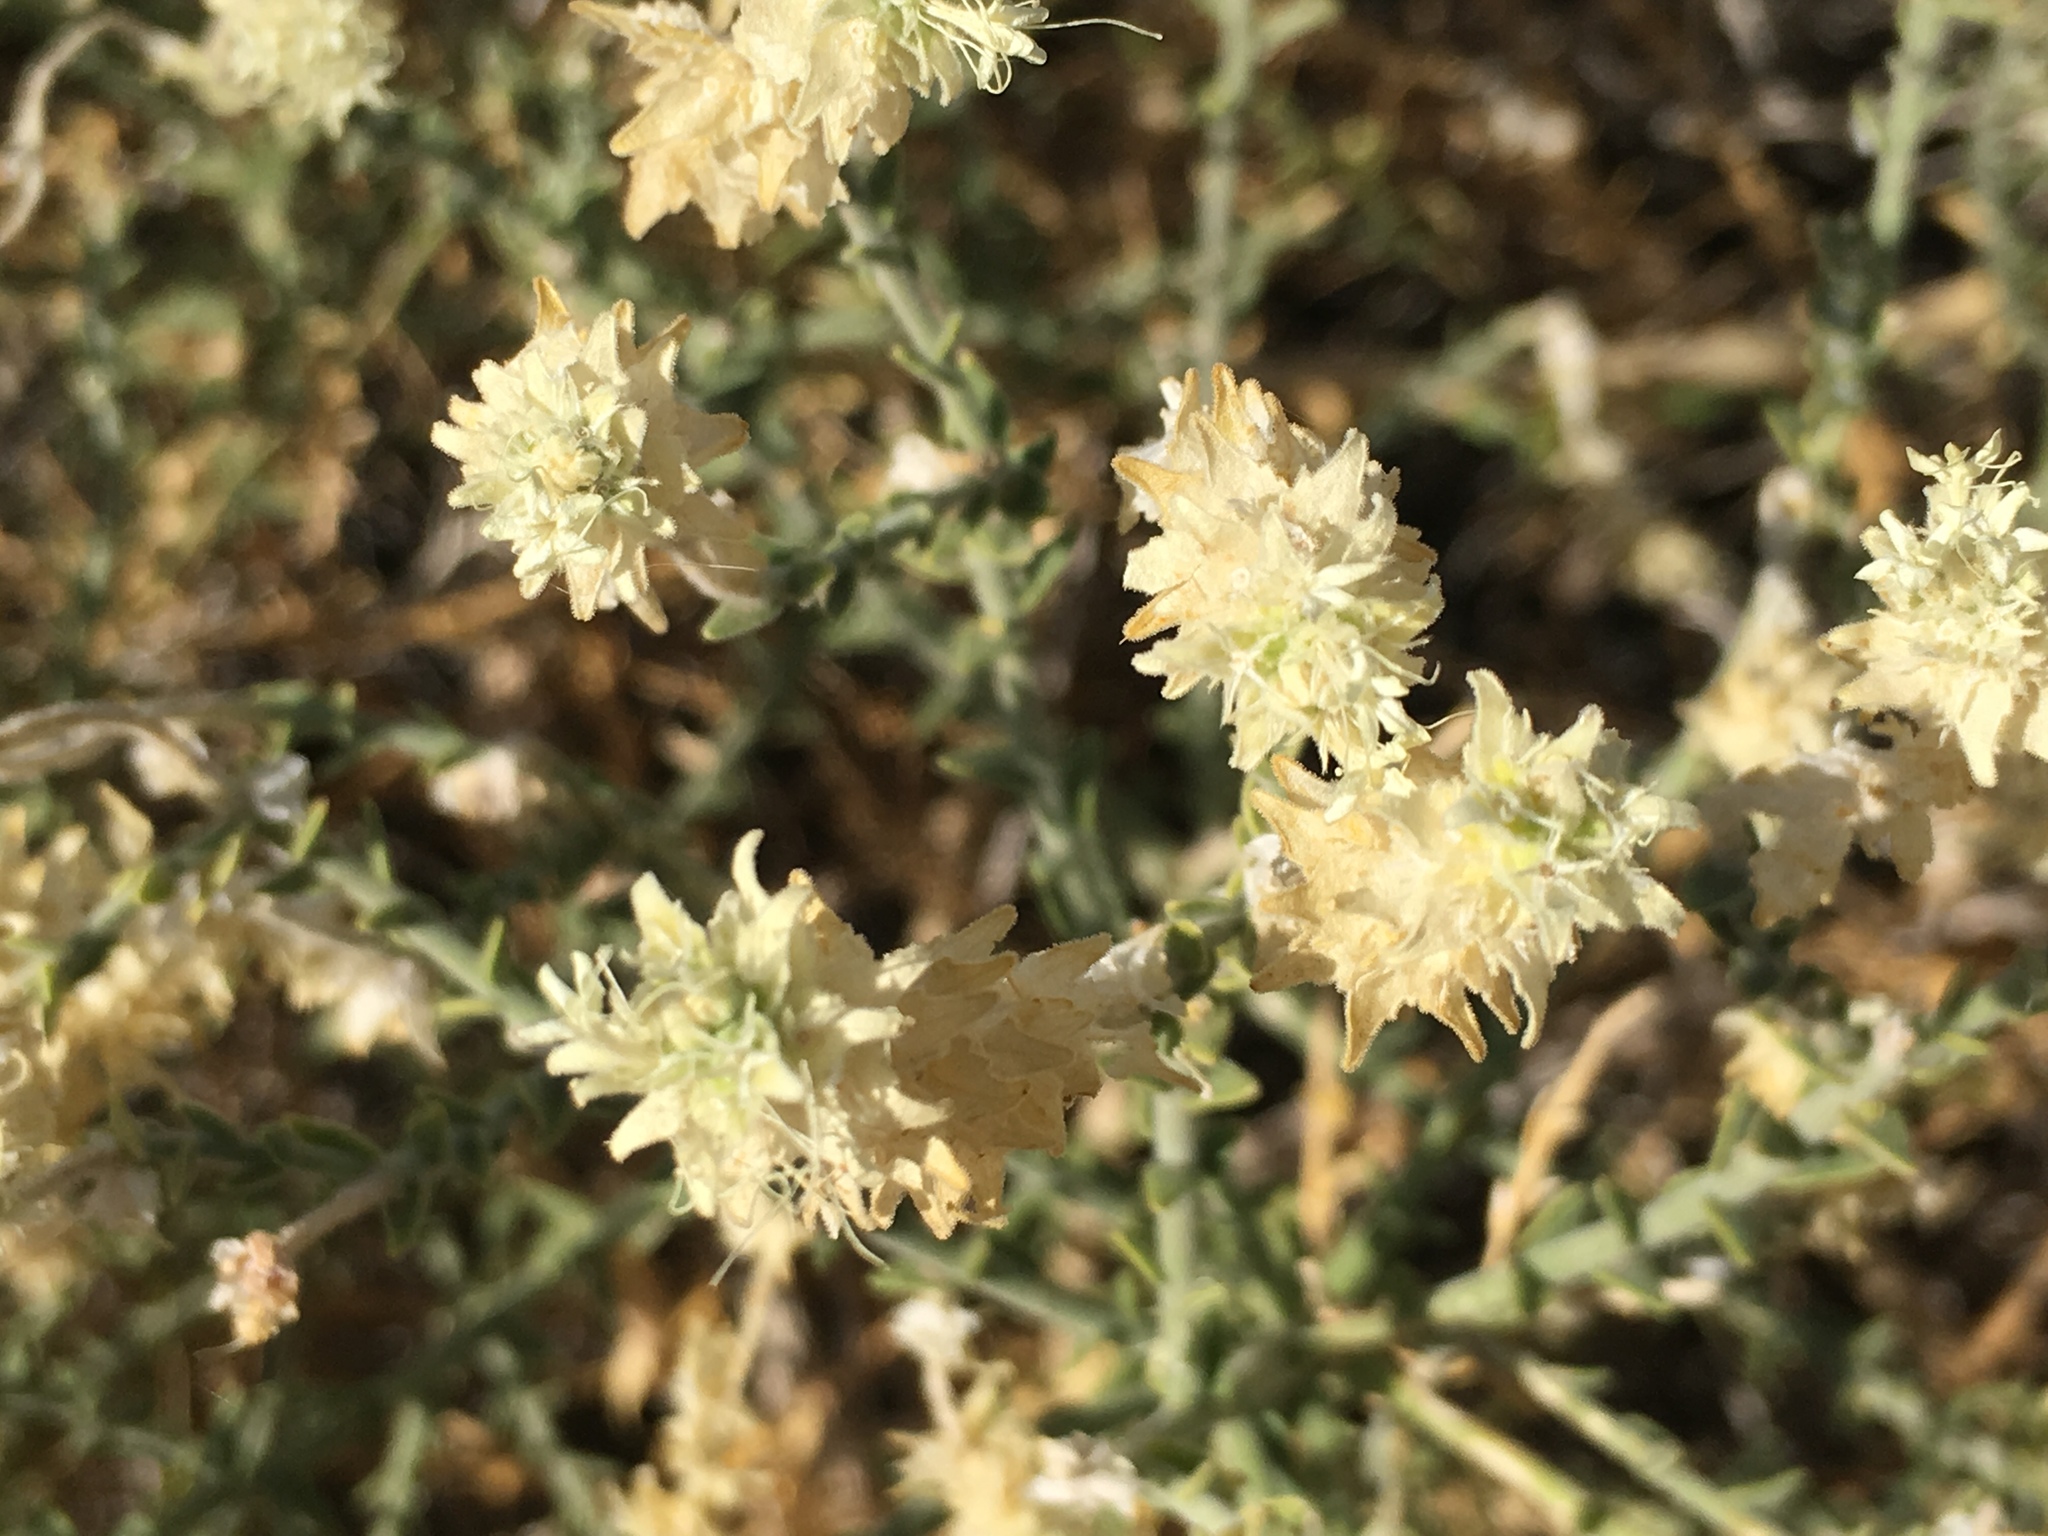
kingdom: Plantae
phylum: Tracheophyta
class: Magnoliopsida
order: Cornales
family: Loasaceae
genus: Petalonyx
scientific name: Petalonyx thurberi
